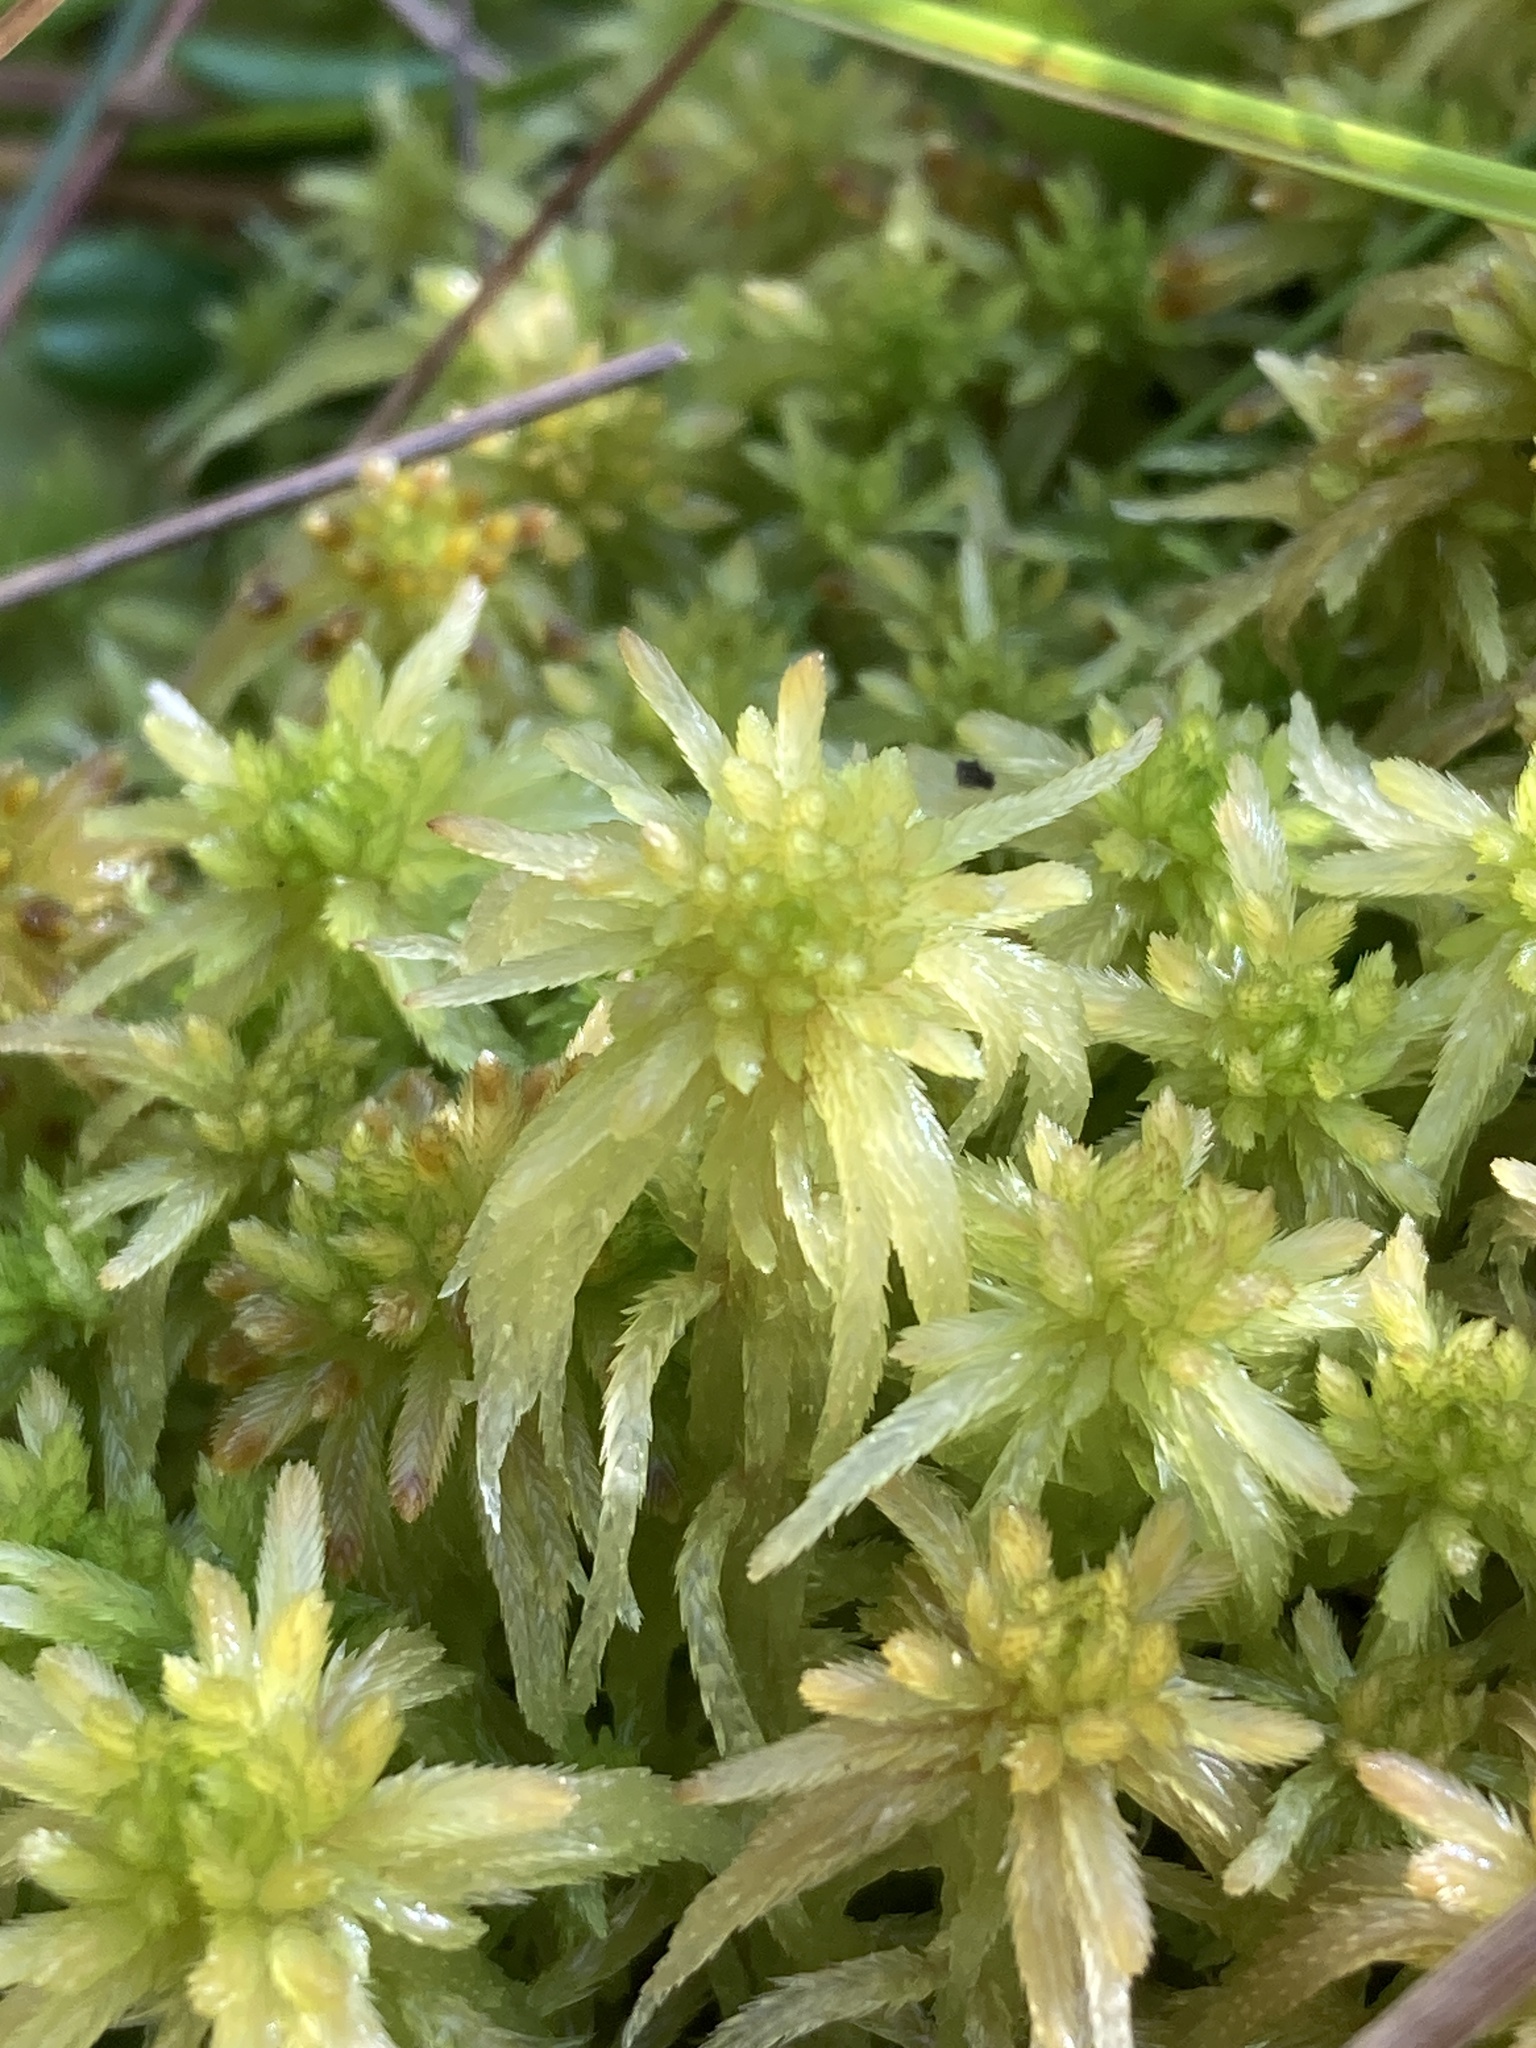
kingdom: Plantae
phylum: Bryophyta
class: Sphagnopsida
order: Sphagnales
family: Sphagnaceae
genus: Sphagnum
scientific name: Sphagnum fallax
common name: Flat-top peat moss
